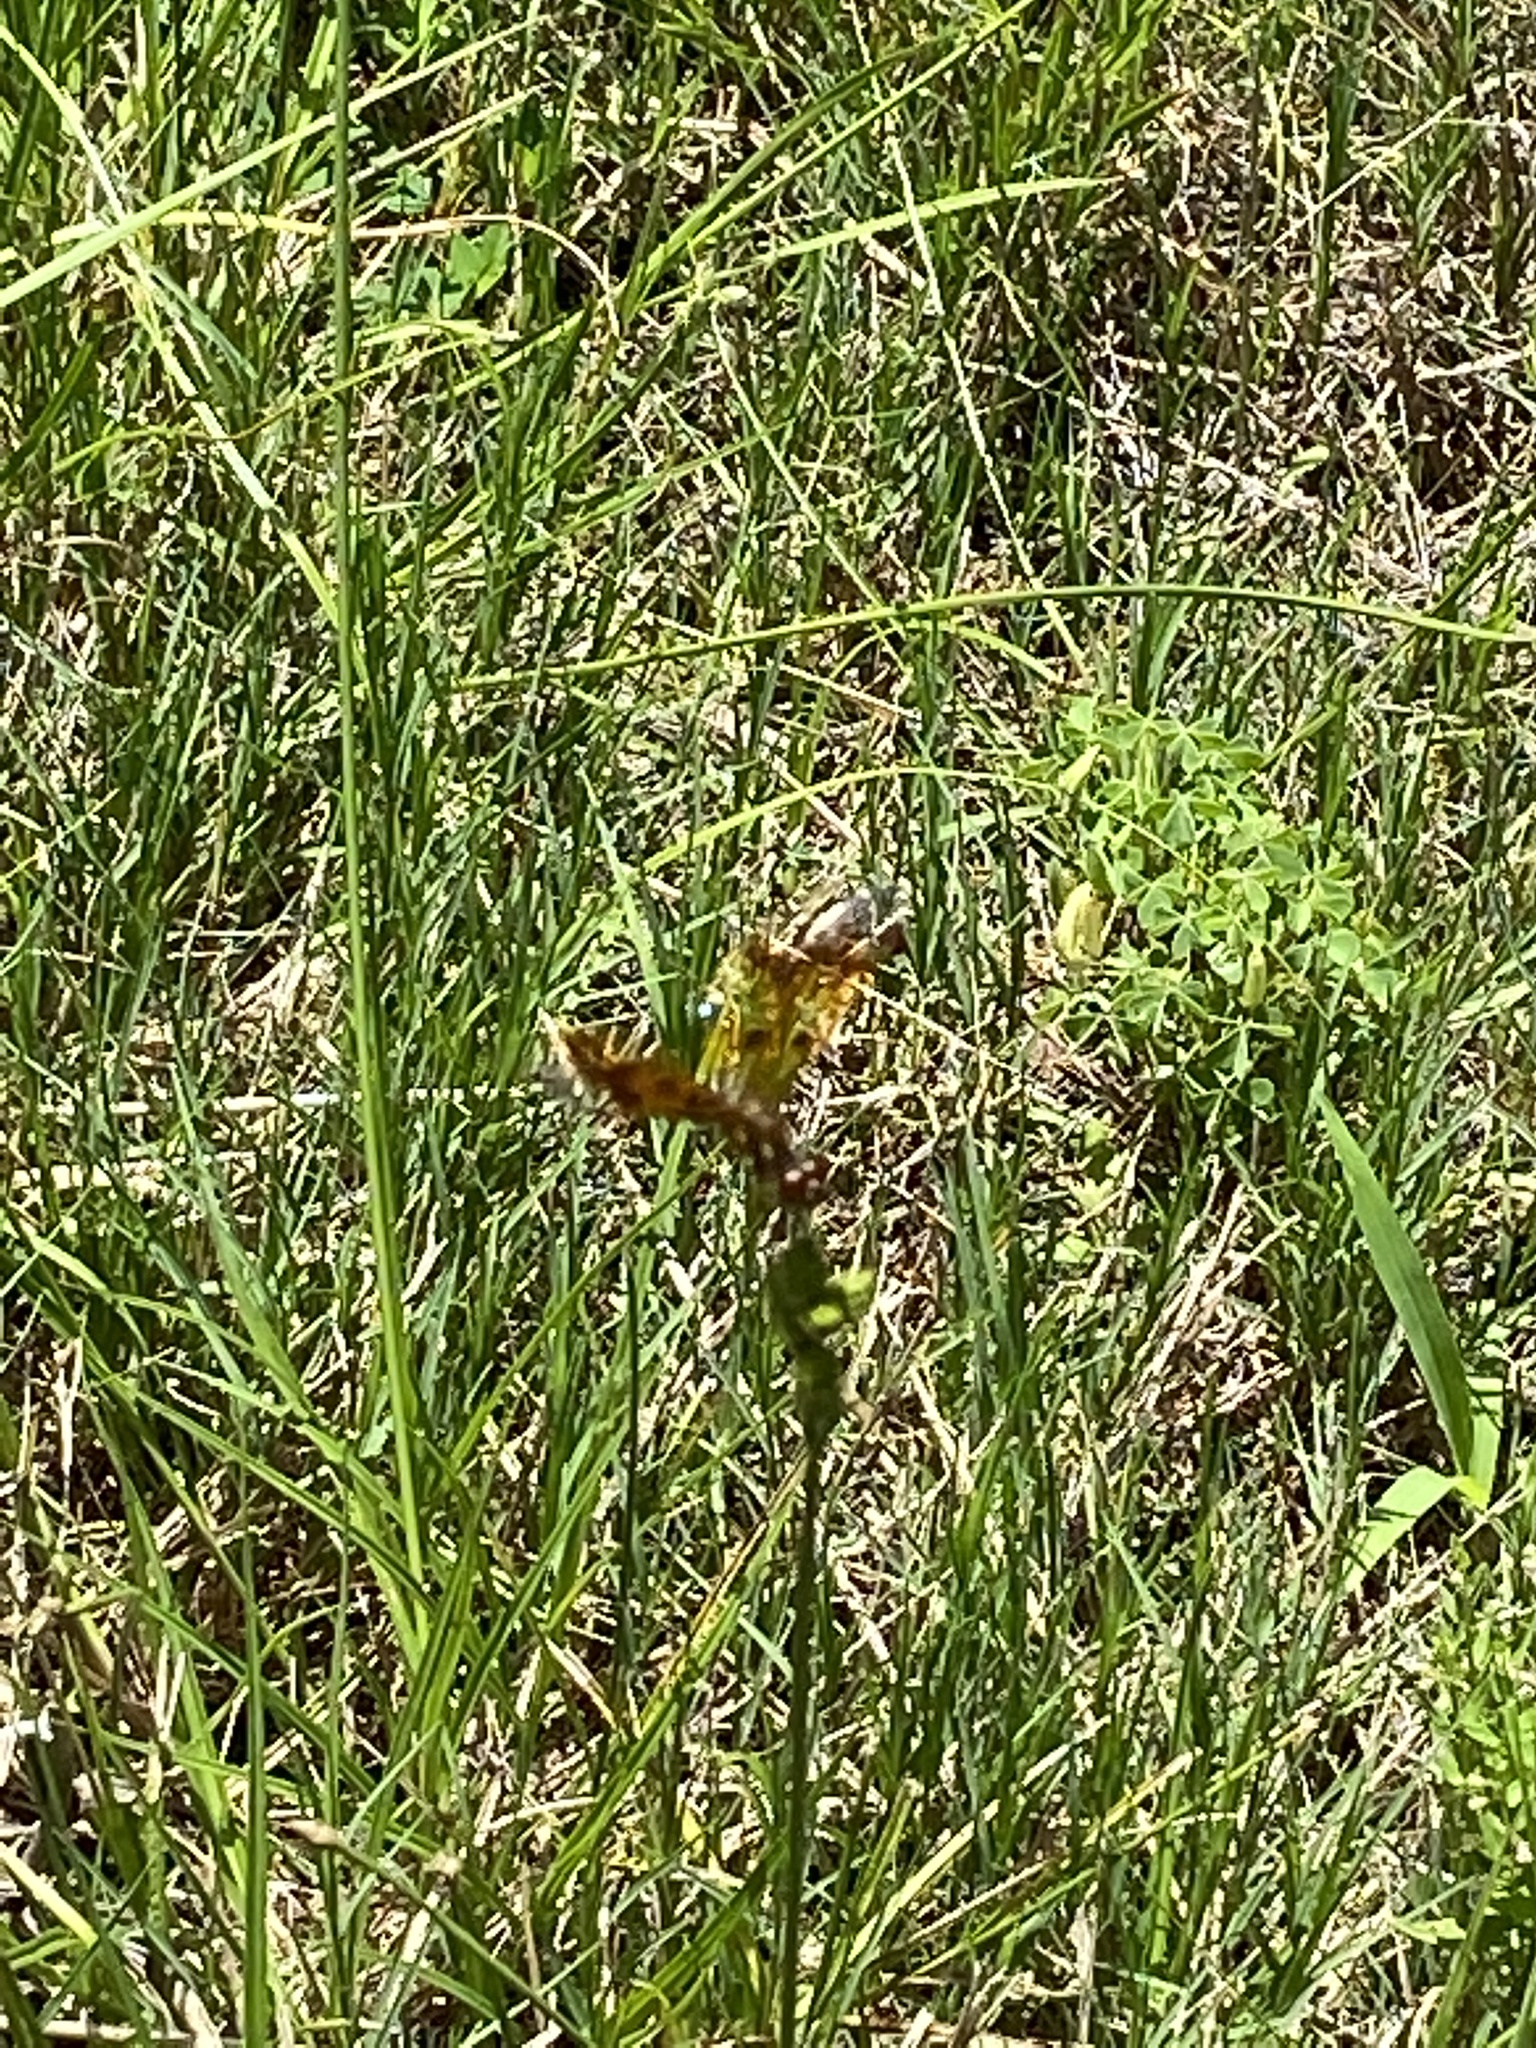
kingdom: Animalia
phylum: Arthropoda
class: Insecta
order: Odonata
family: Libellulidae
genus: Perithemis
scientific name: Perithemis tenera
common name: Eastern amberwing
